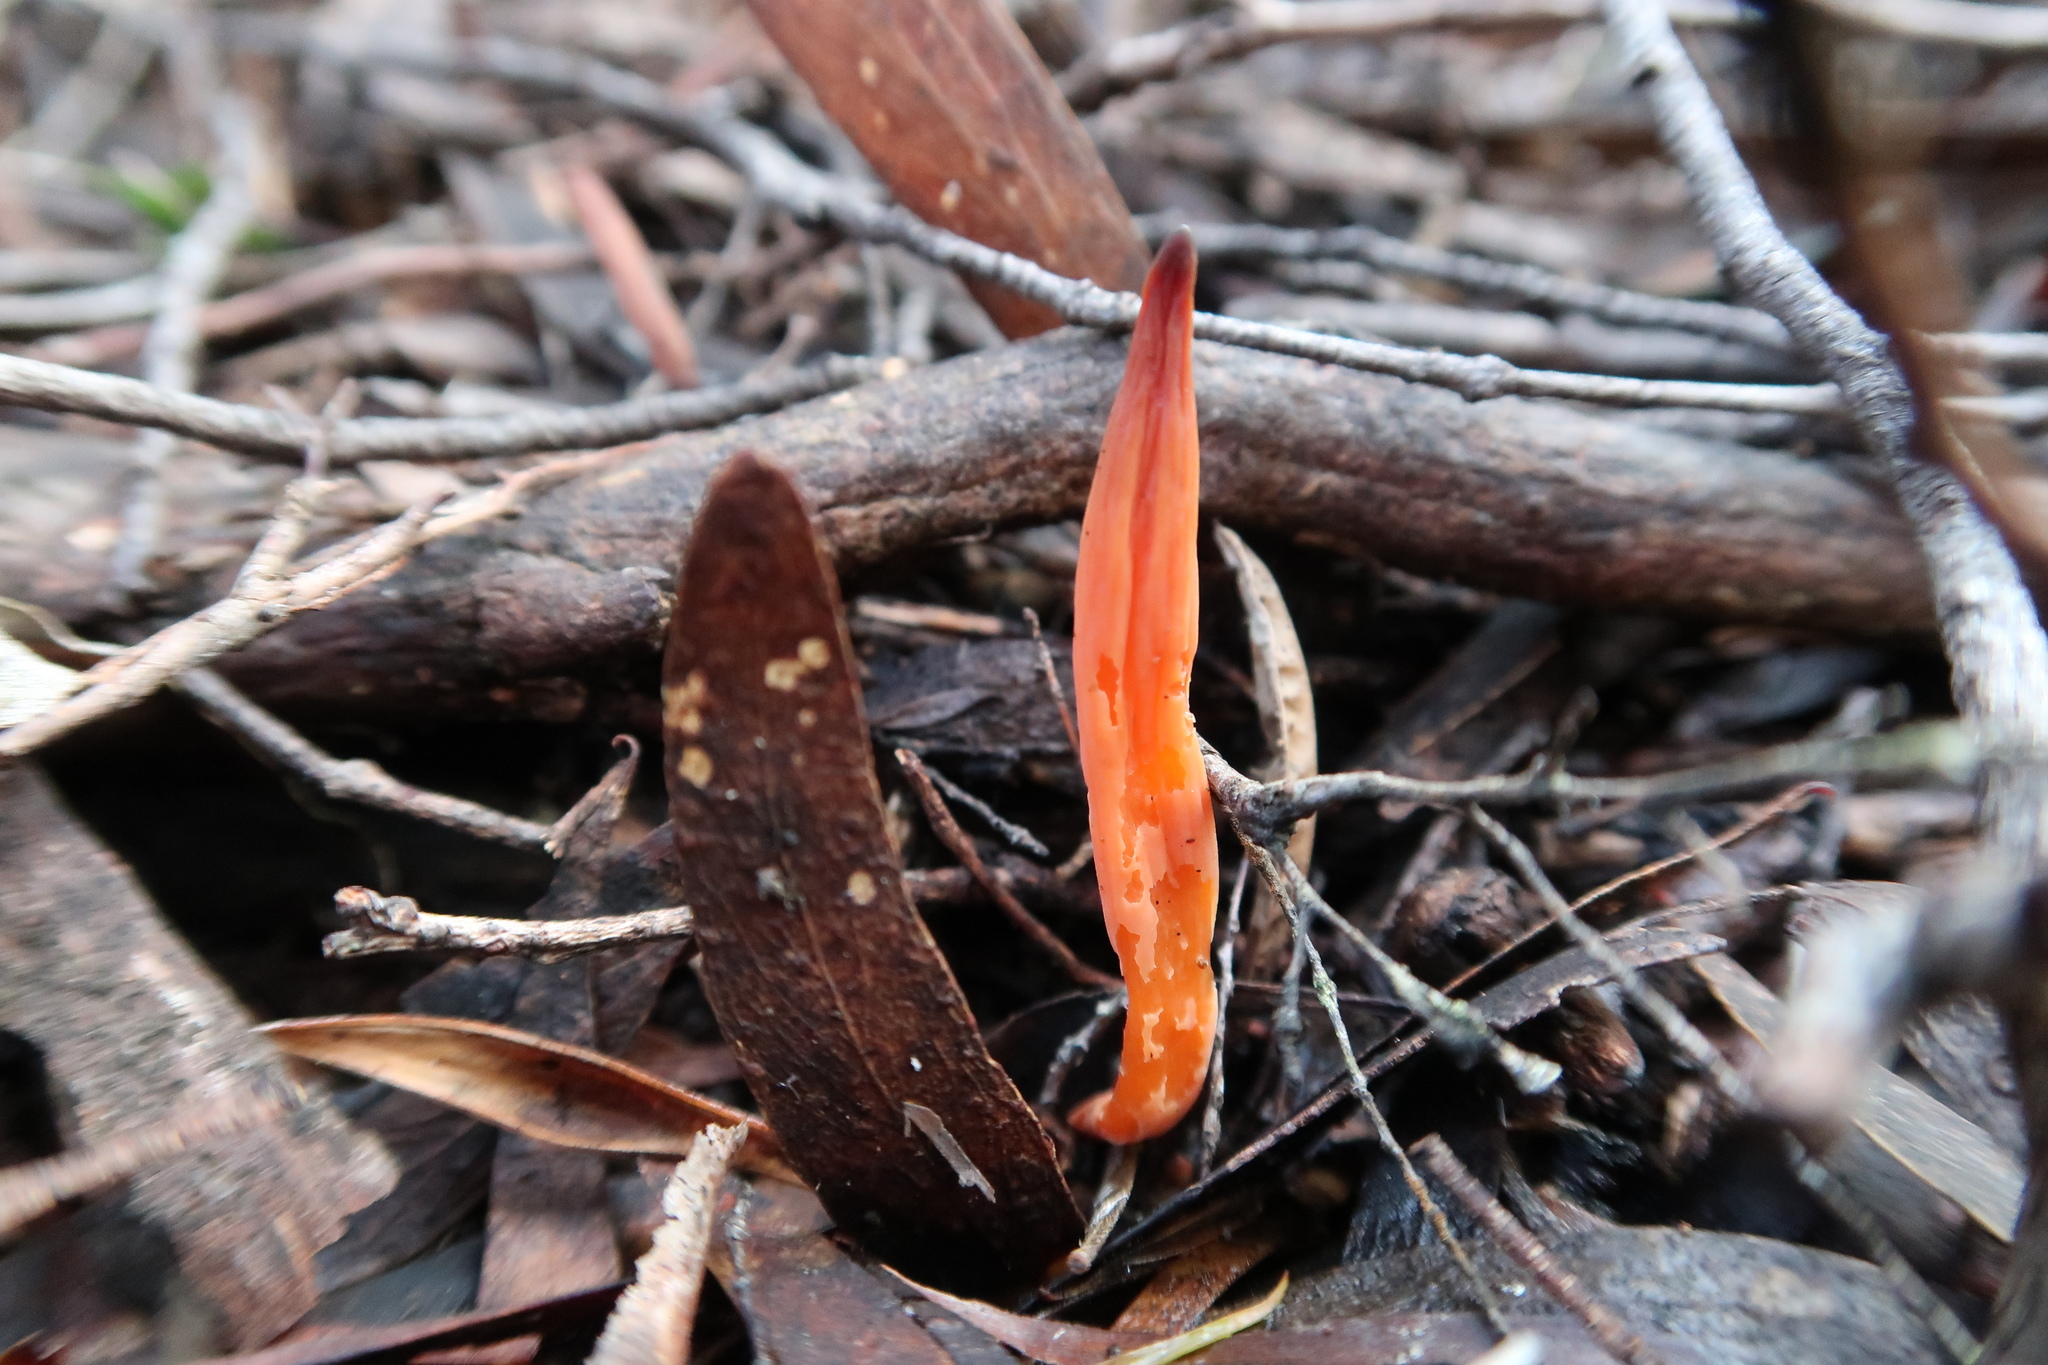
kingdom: Fungi
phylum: Basidiomycota
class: Agaricomycetes
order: Agaricales
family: Clavariaceae
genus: Clavulinopsis
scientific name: Clavulinopsis sulcata
